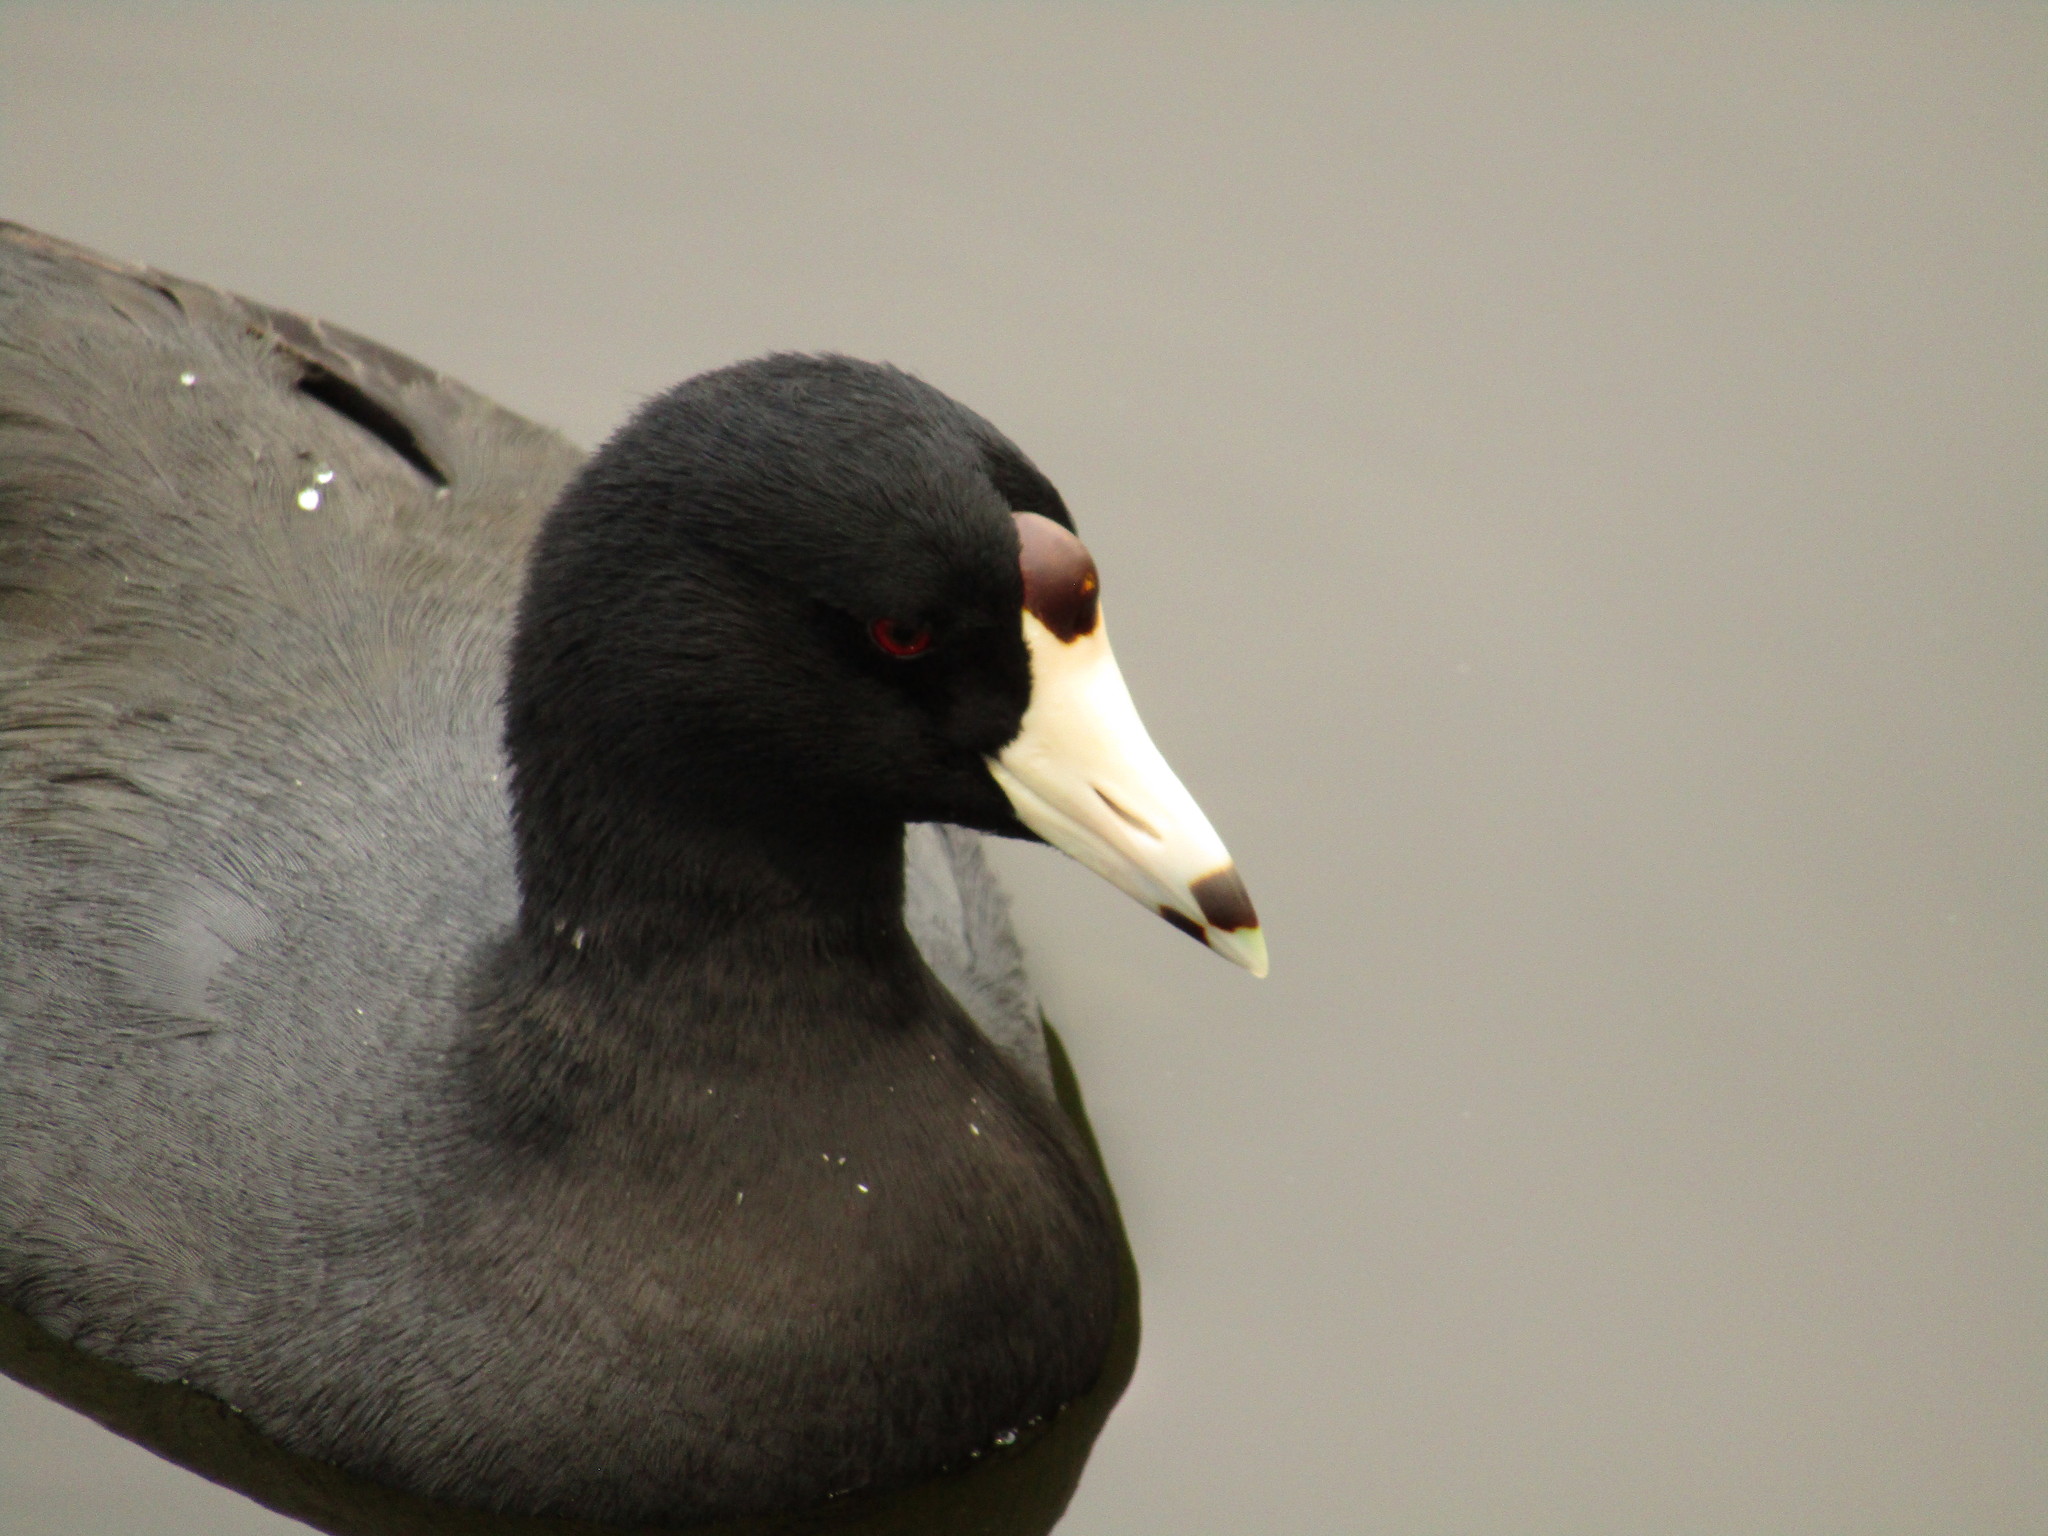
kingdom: Animalia
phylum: Chordata
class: Aves
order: Gruiformes
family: Rallidae
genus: Fulica
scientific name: Fulica americana
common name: American coot
